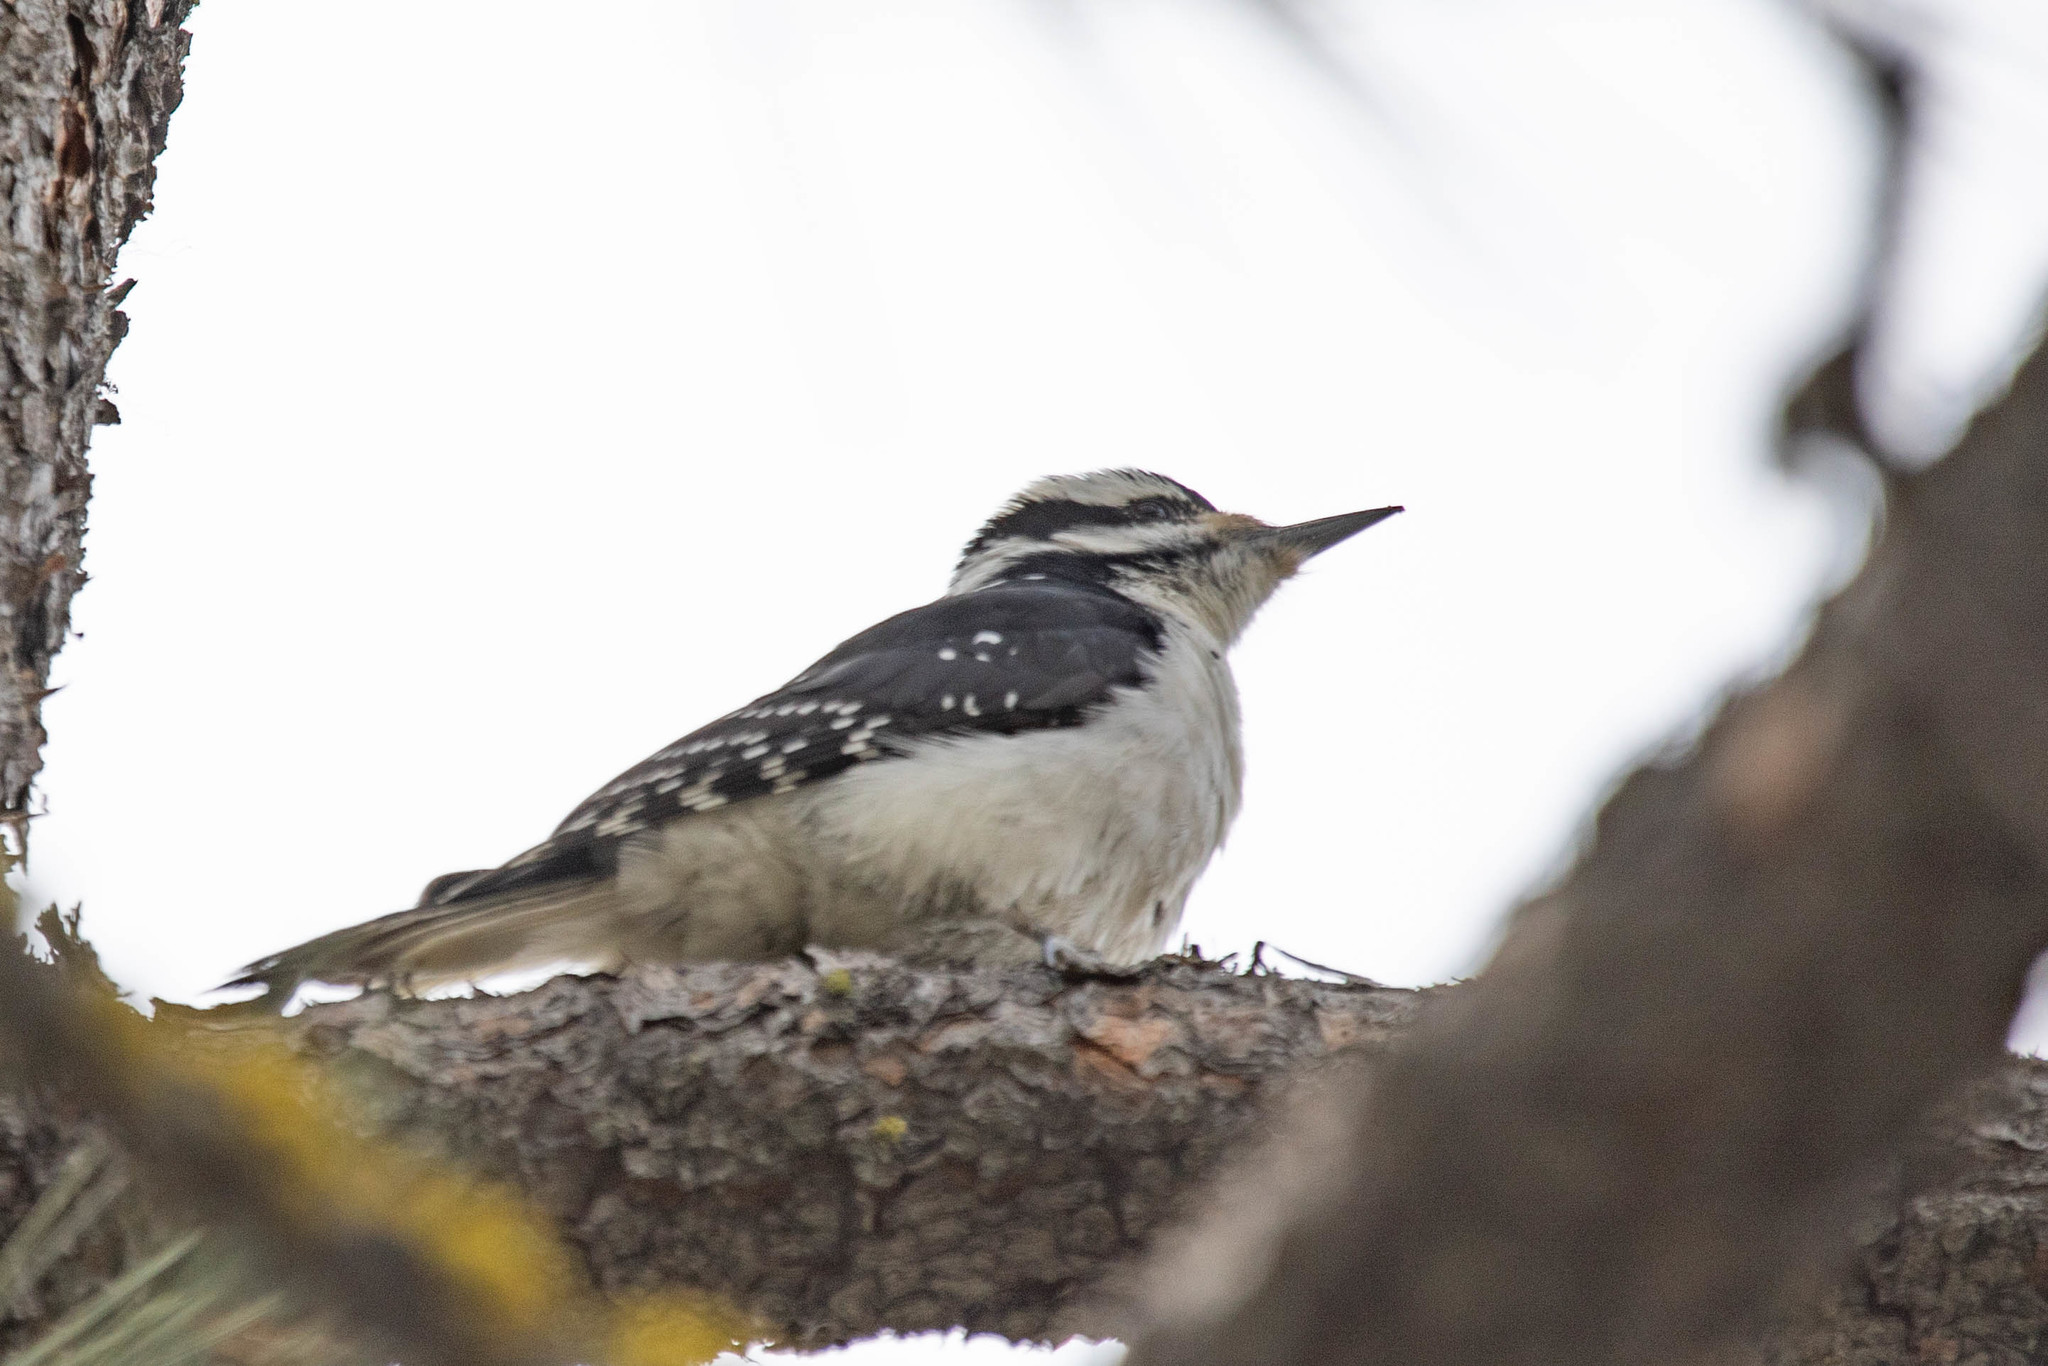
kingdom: Animalia
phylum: Chordata
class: Aves
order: Piciformes
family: Picidae
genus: Dryobates
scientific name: Dryobates pubescens
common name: Downy woodpecker
